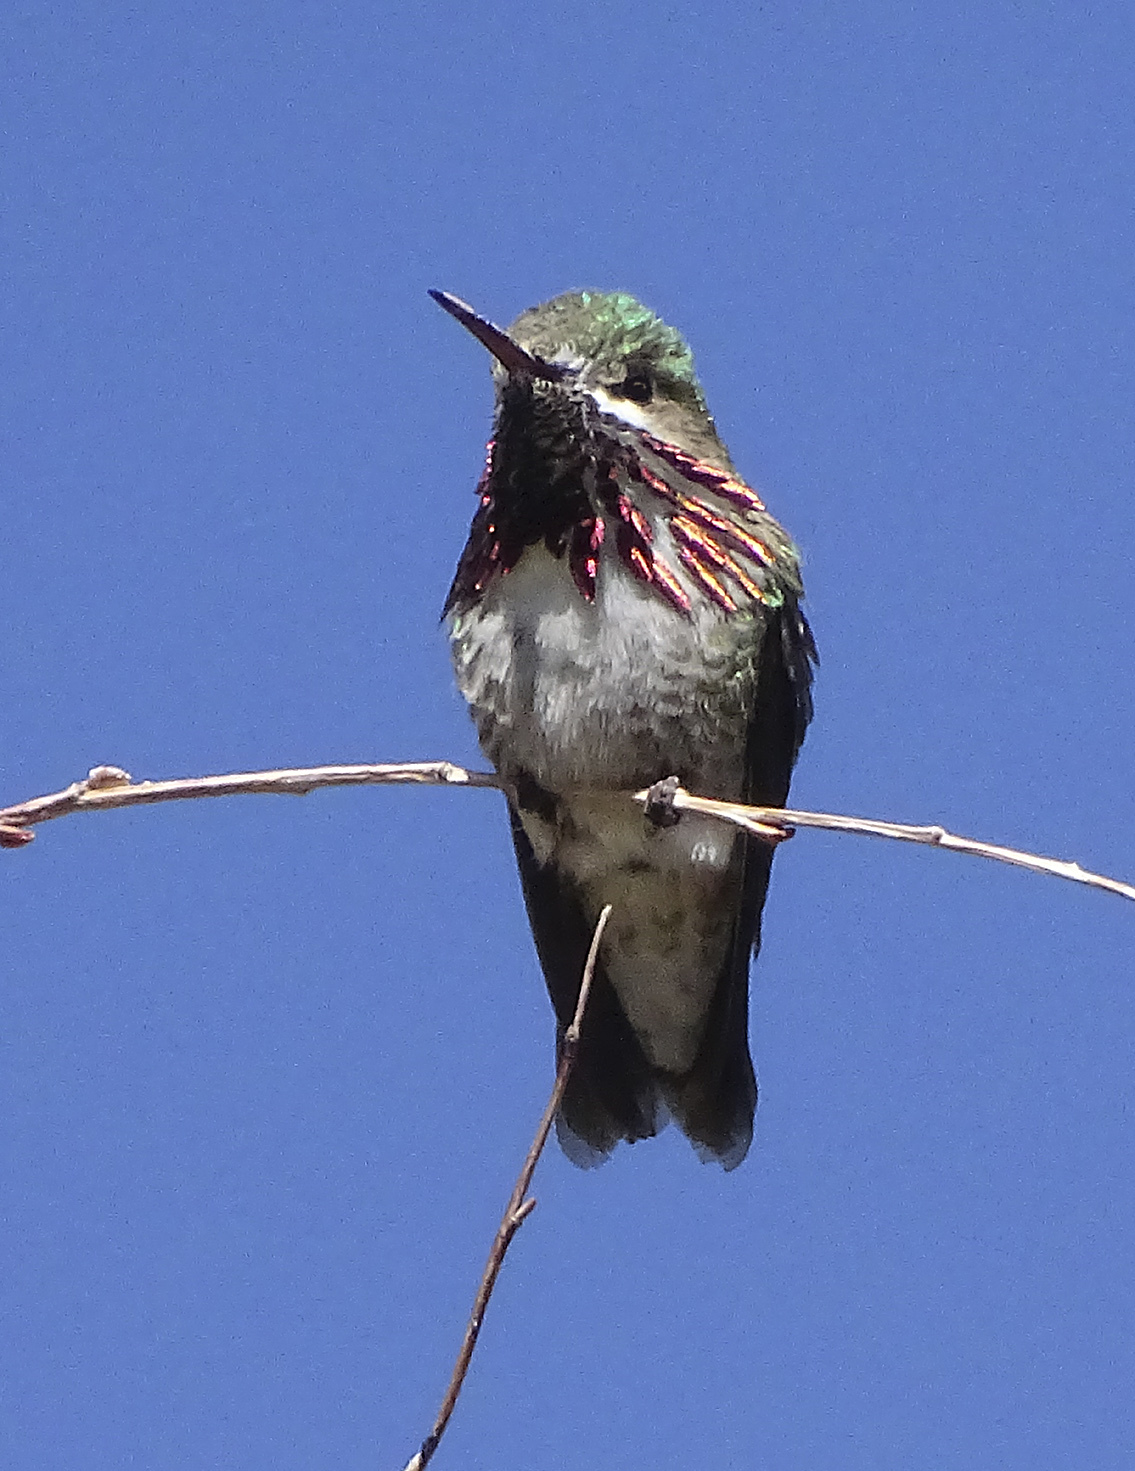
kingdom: Animalia
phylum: Chordata
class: Aves
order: Apodiformes
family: Trochilidae
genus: Selasphorus
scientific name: Selasphorus calliope
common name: Calliope hummingbird
